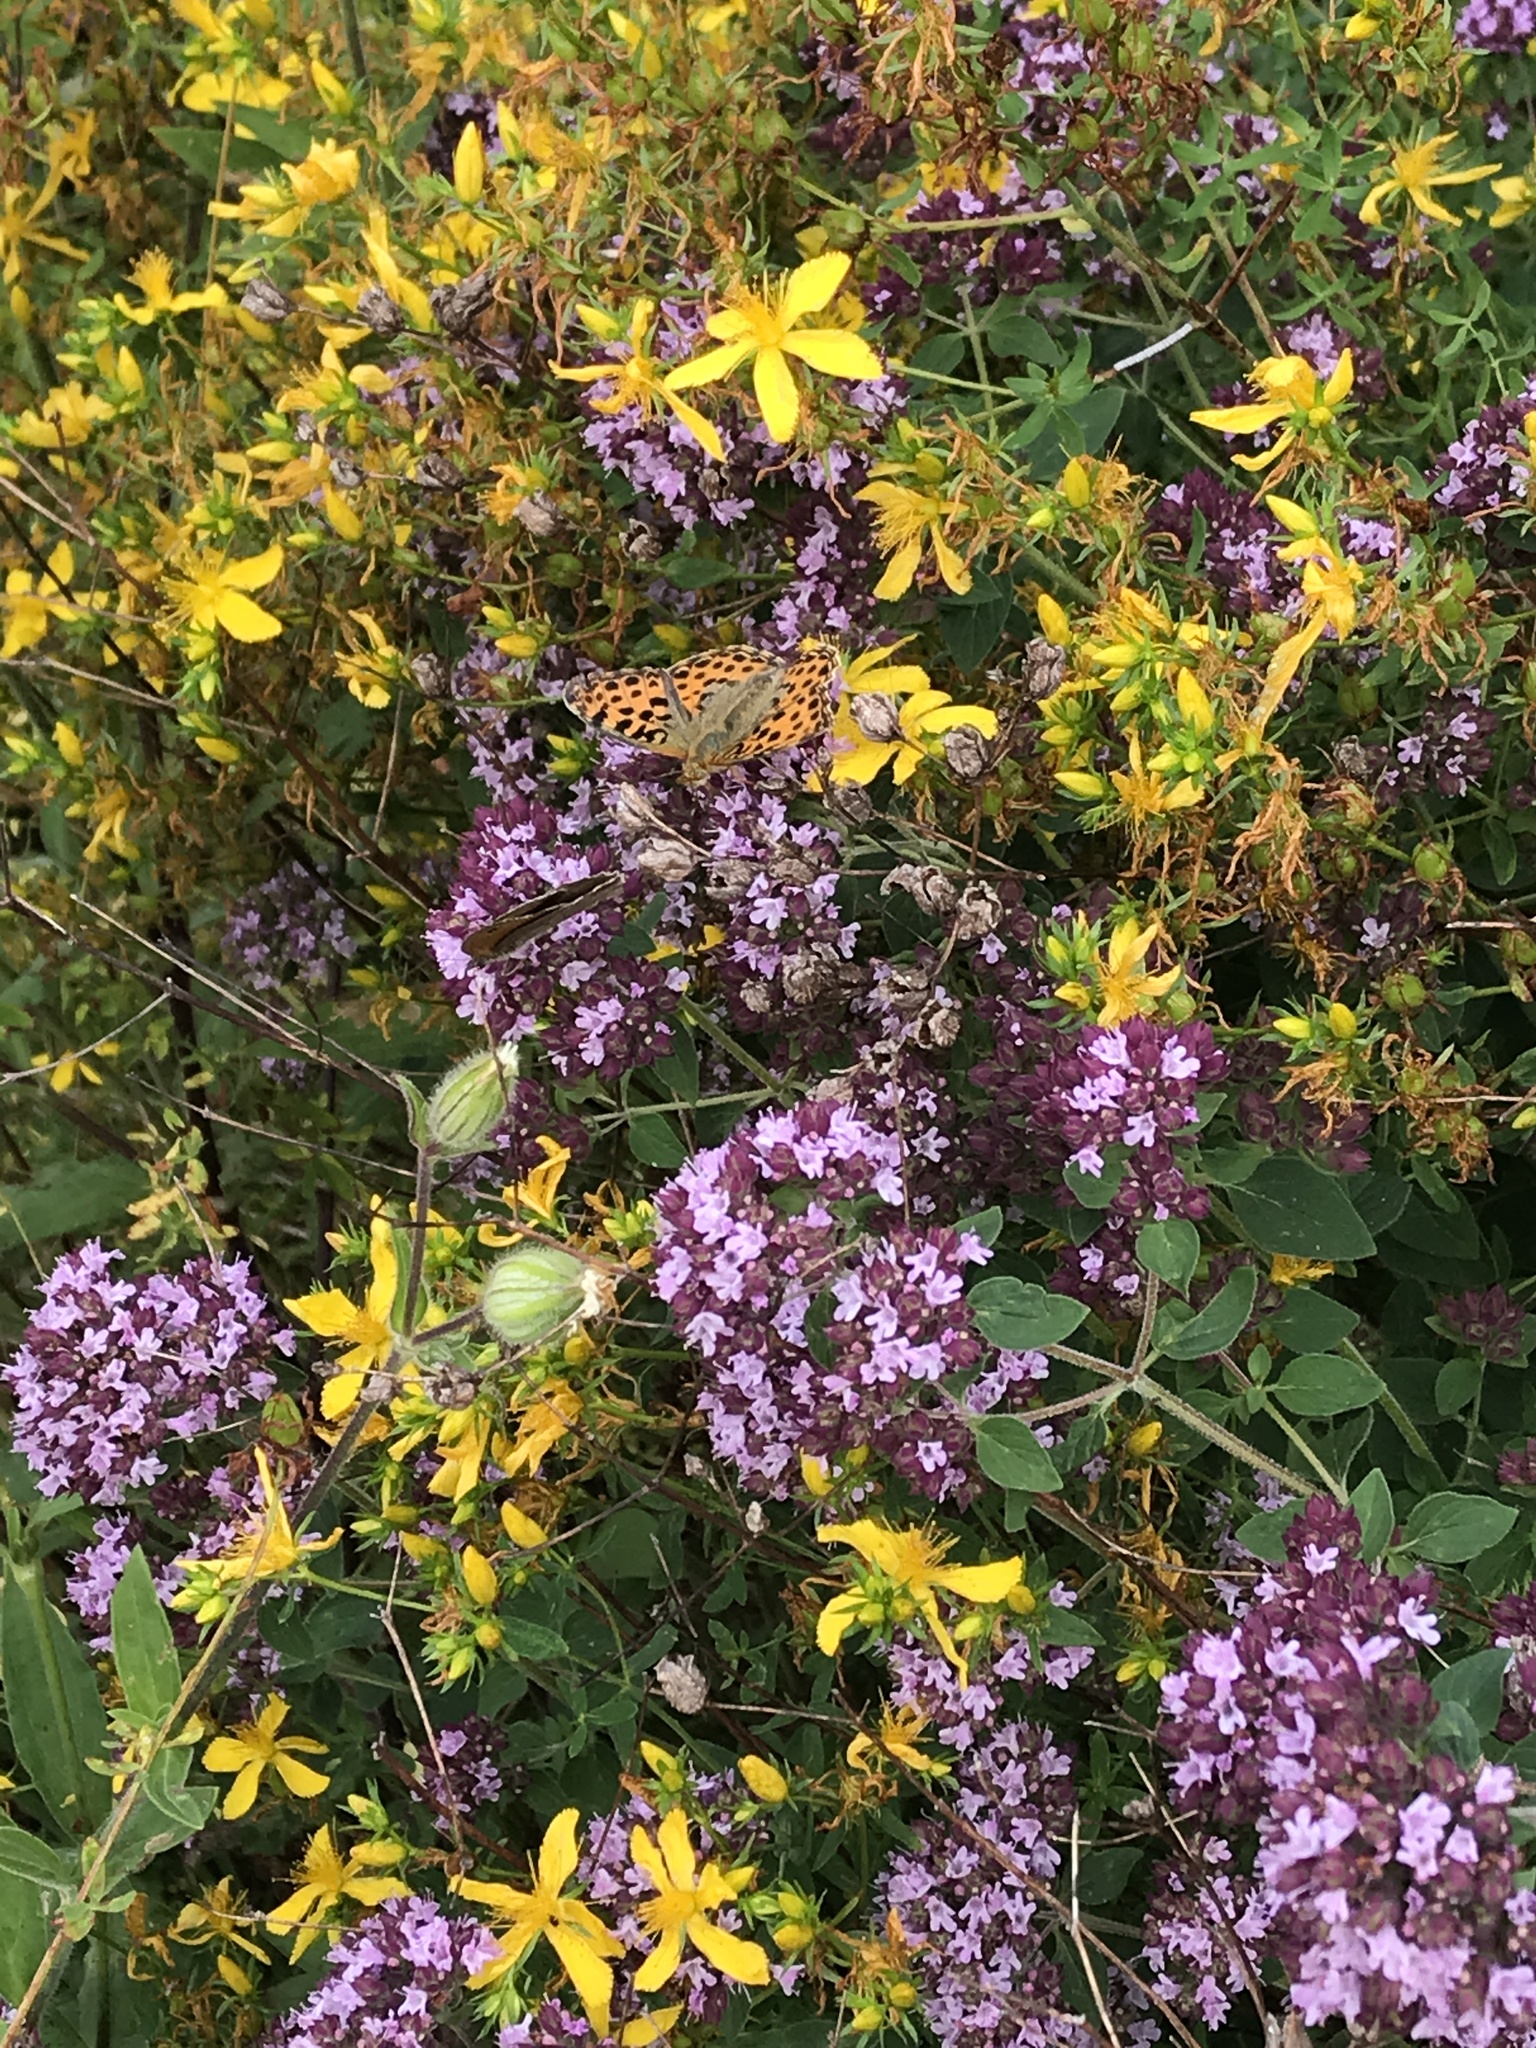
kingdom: Animalia
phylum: Arthropoda
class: Insecta
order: Lepidoptera
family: Nymphalidae
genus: Issoria
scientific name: Issoria lathonia
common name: Queen of spain fritillary
